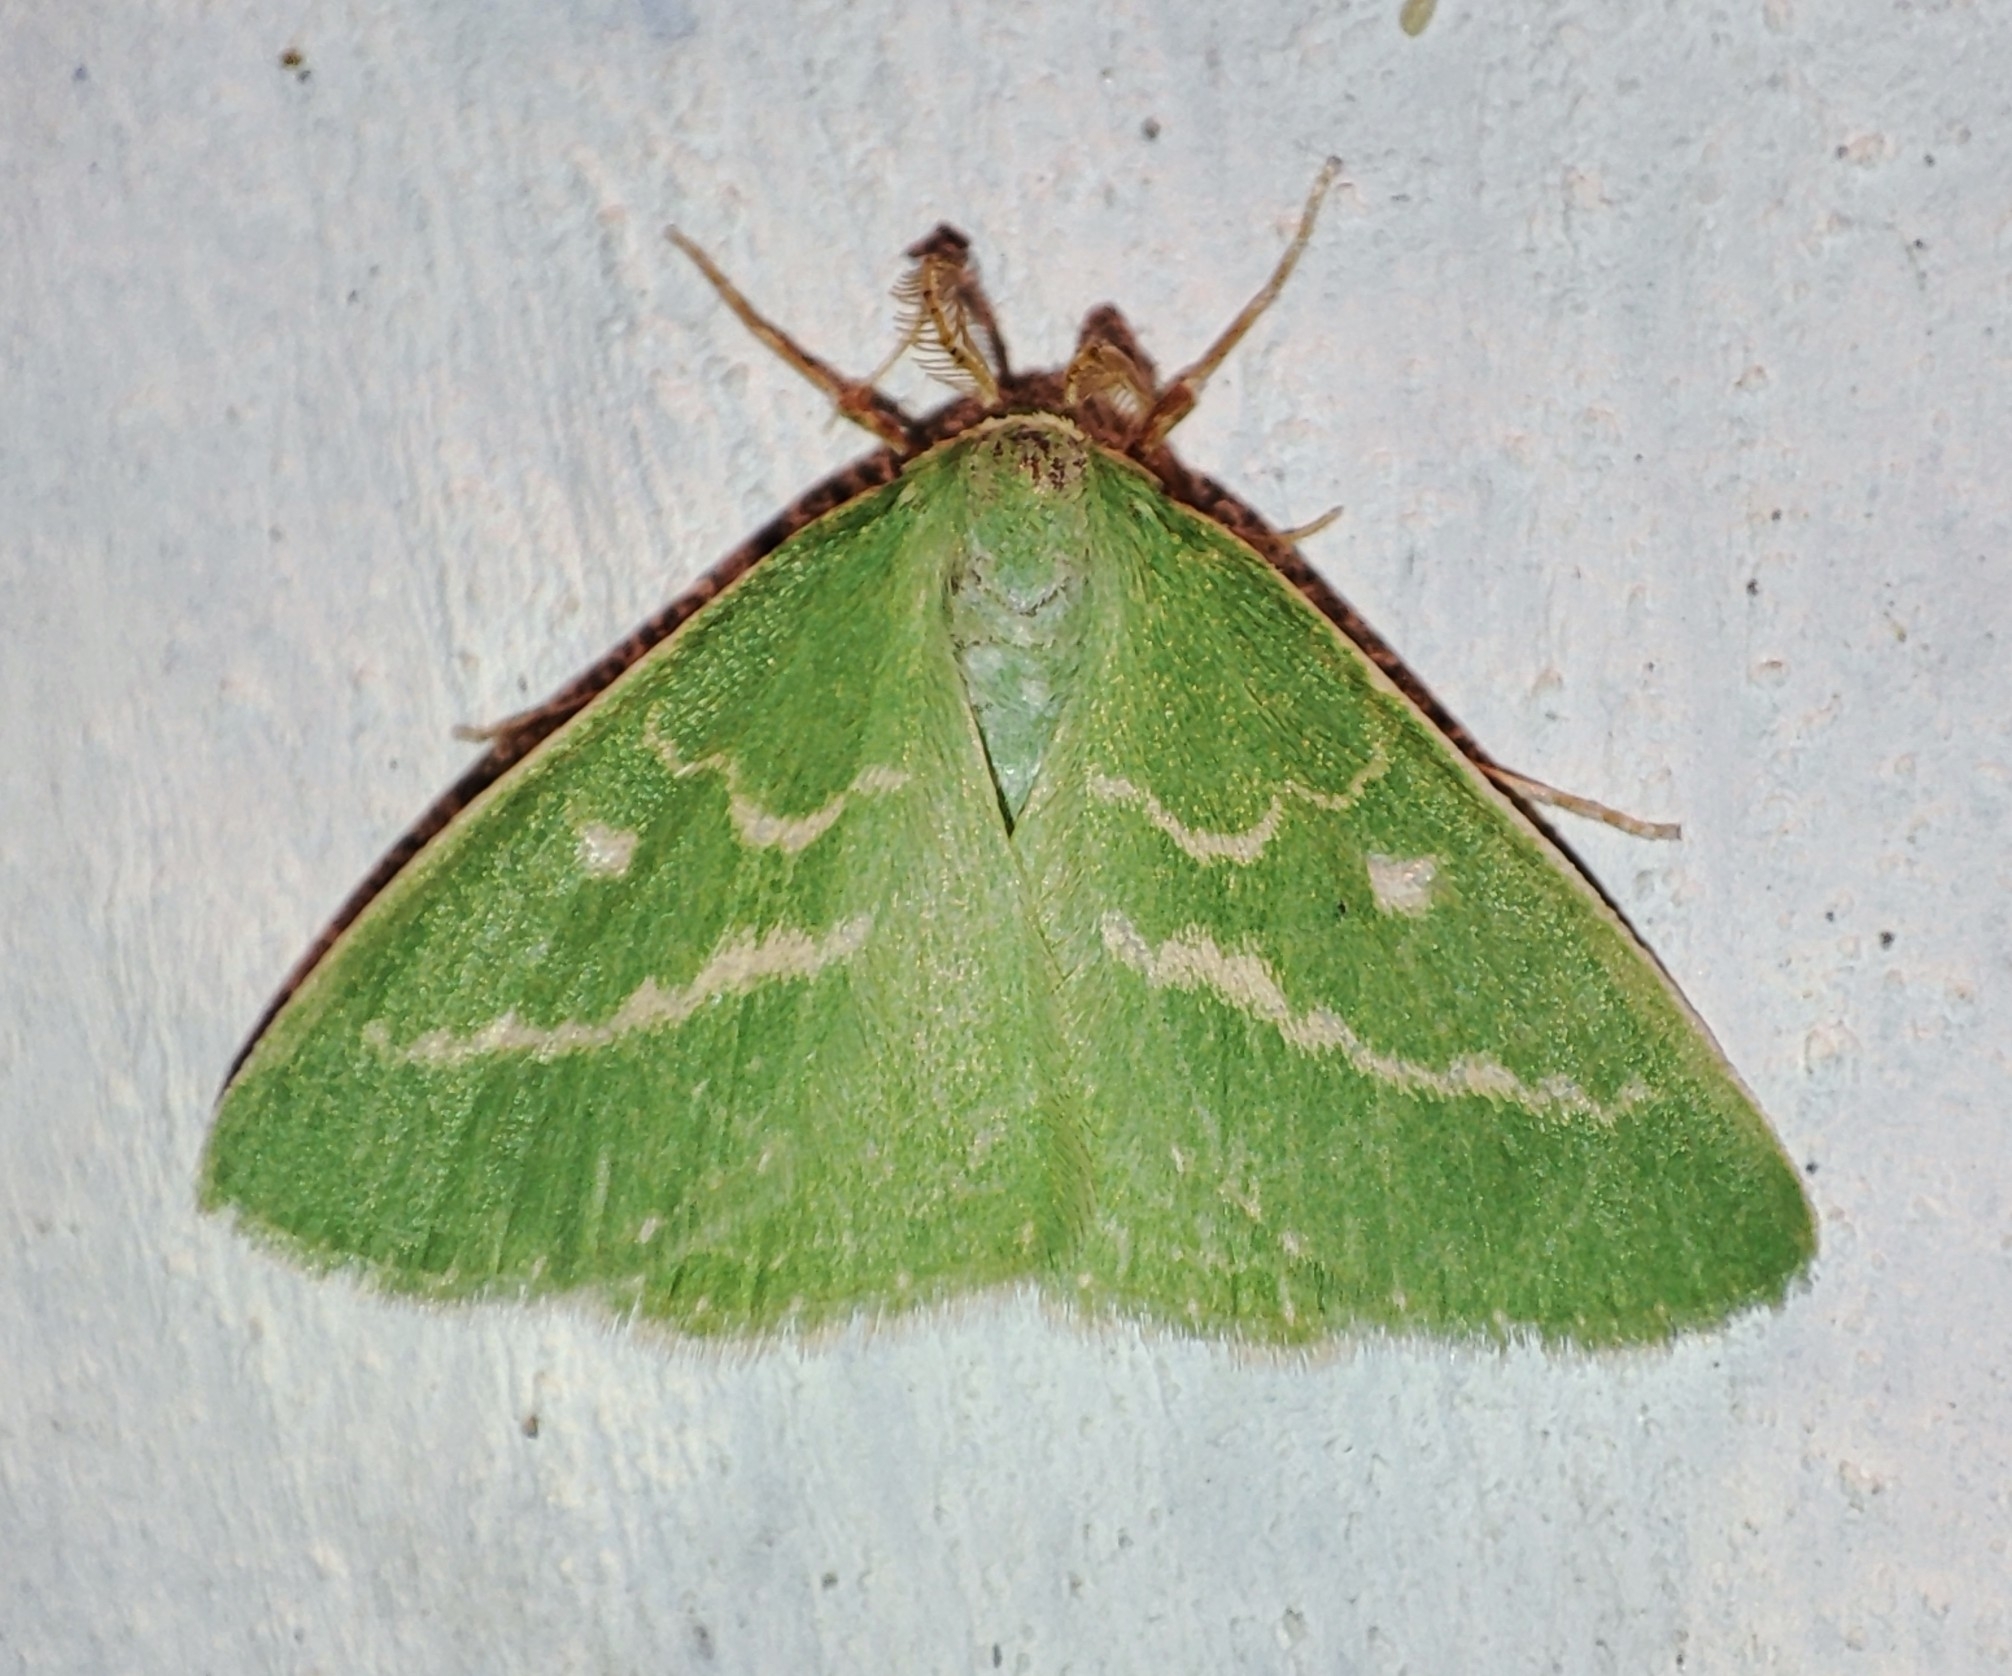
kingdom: Animalia
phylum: Arthropoda
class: Insecta
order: Lepidoptera
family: Geometridae
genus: Thetidia
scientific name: Thetidia smaragdaria
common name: Essex emerald
